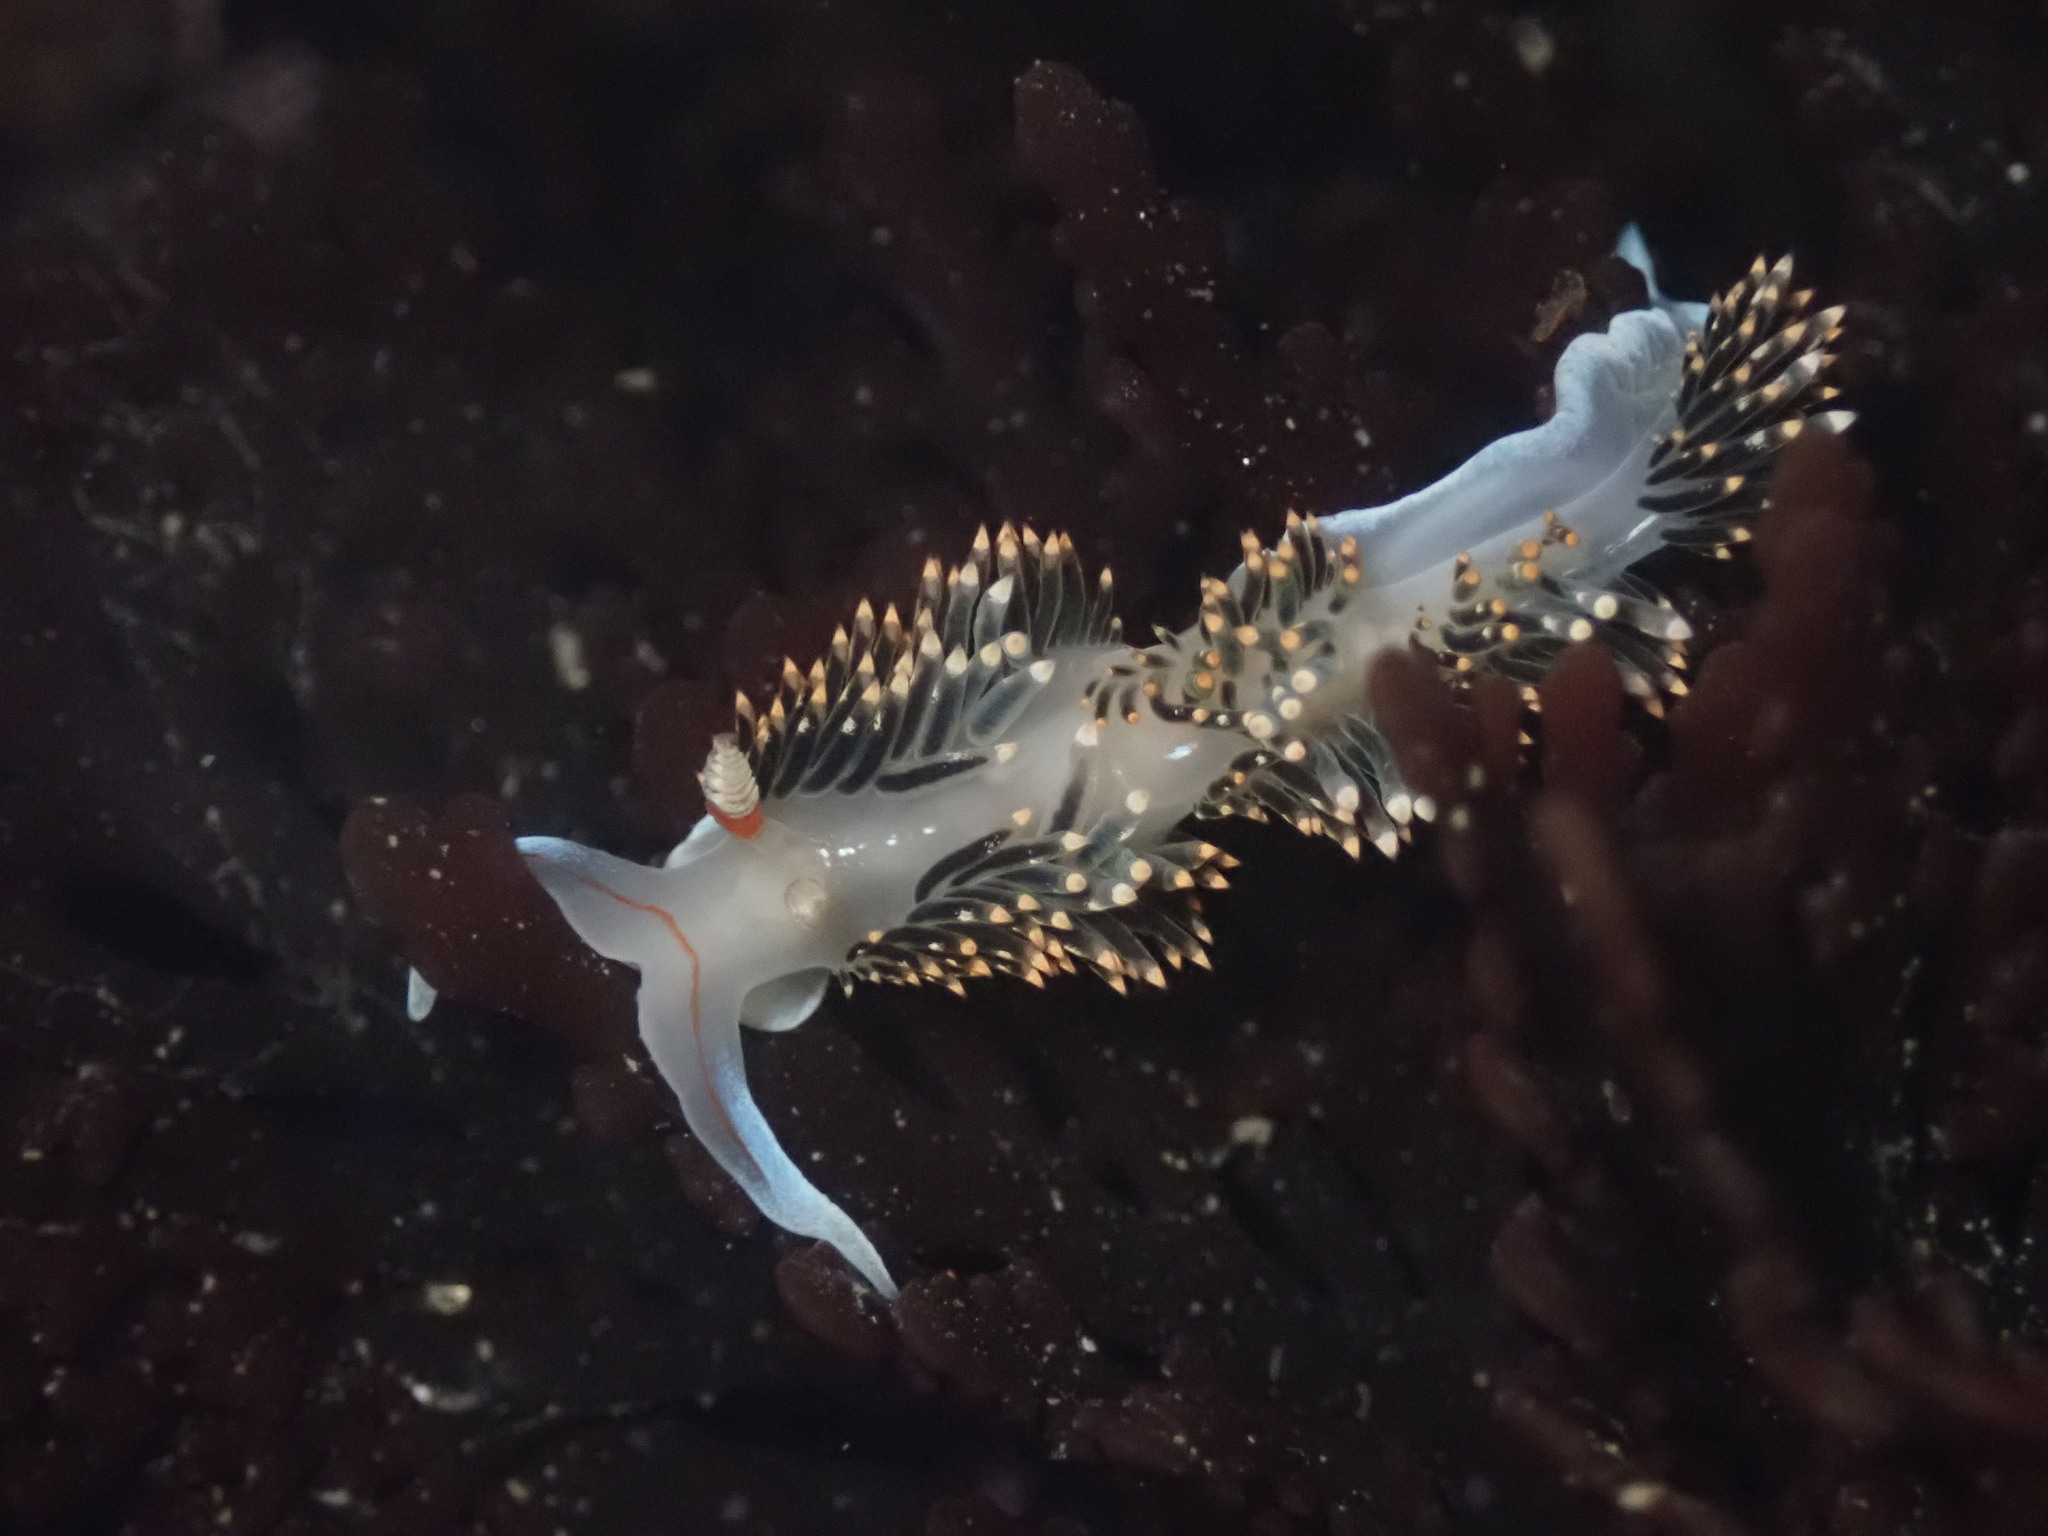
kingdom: Animalia
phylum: Mollusca
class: Gastropoda
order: Nudibranchia
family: Facelinidae
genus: Phidiana
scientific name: Phidiana hiltoni
